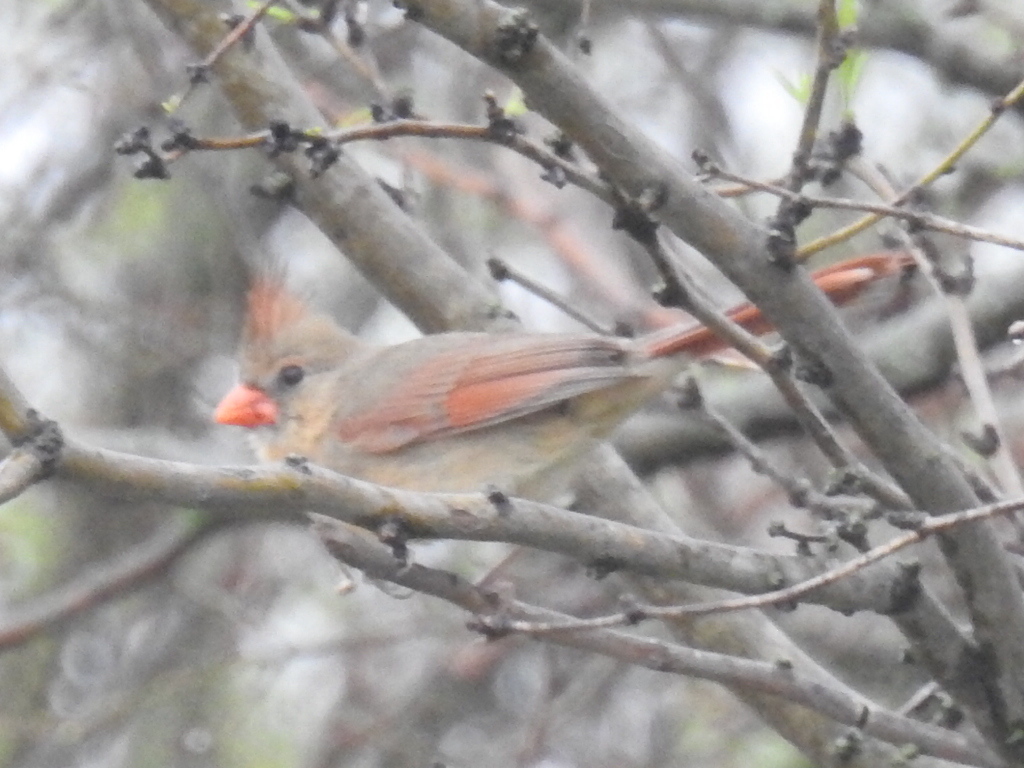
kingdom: Animalia
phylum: Chordata
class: Aves
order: Passeriformes
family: Cardinalidae
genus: Cardinalis
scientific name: Cardinalis cardinalis
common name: Northern cardinal
